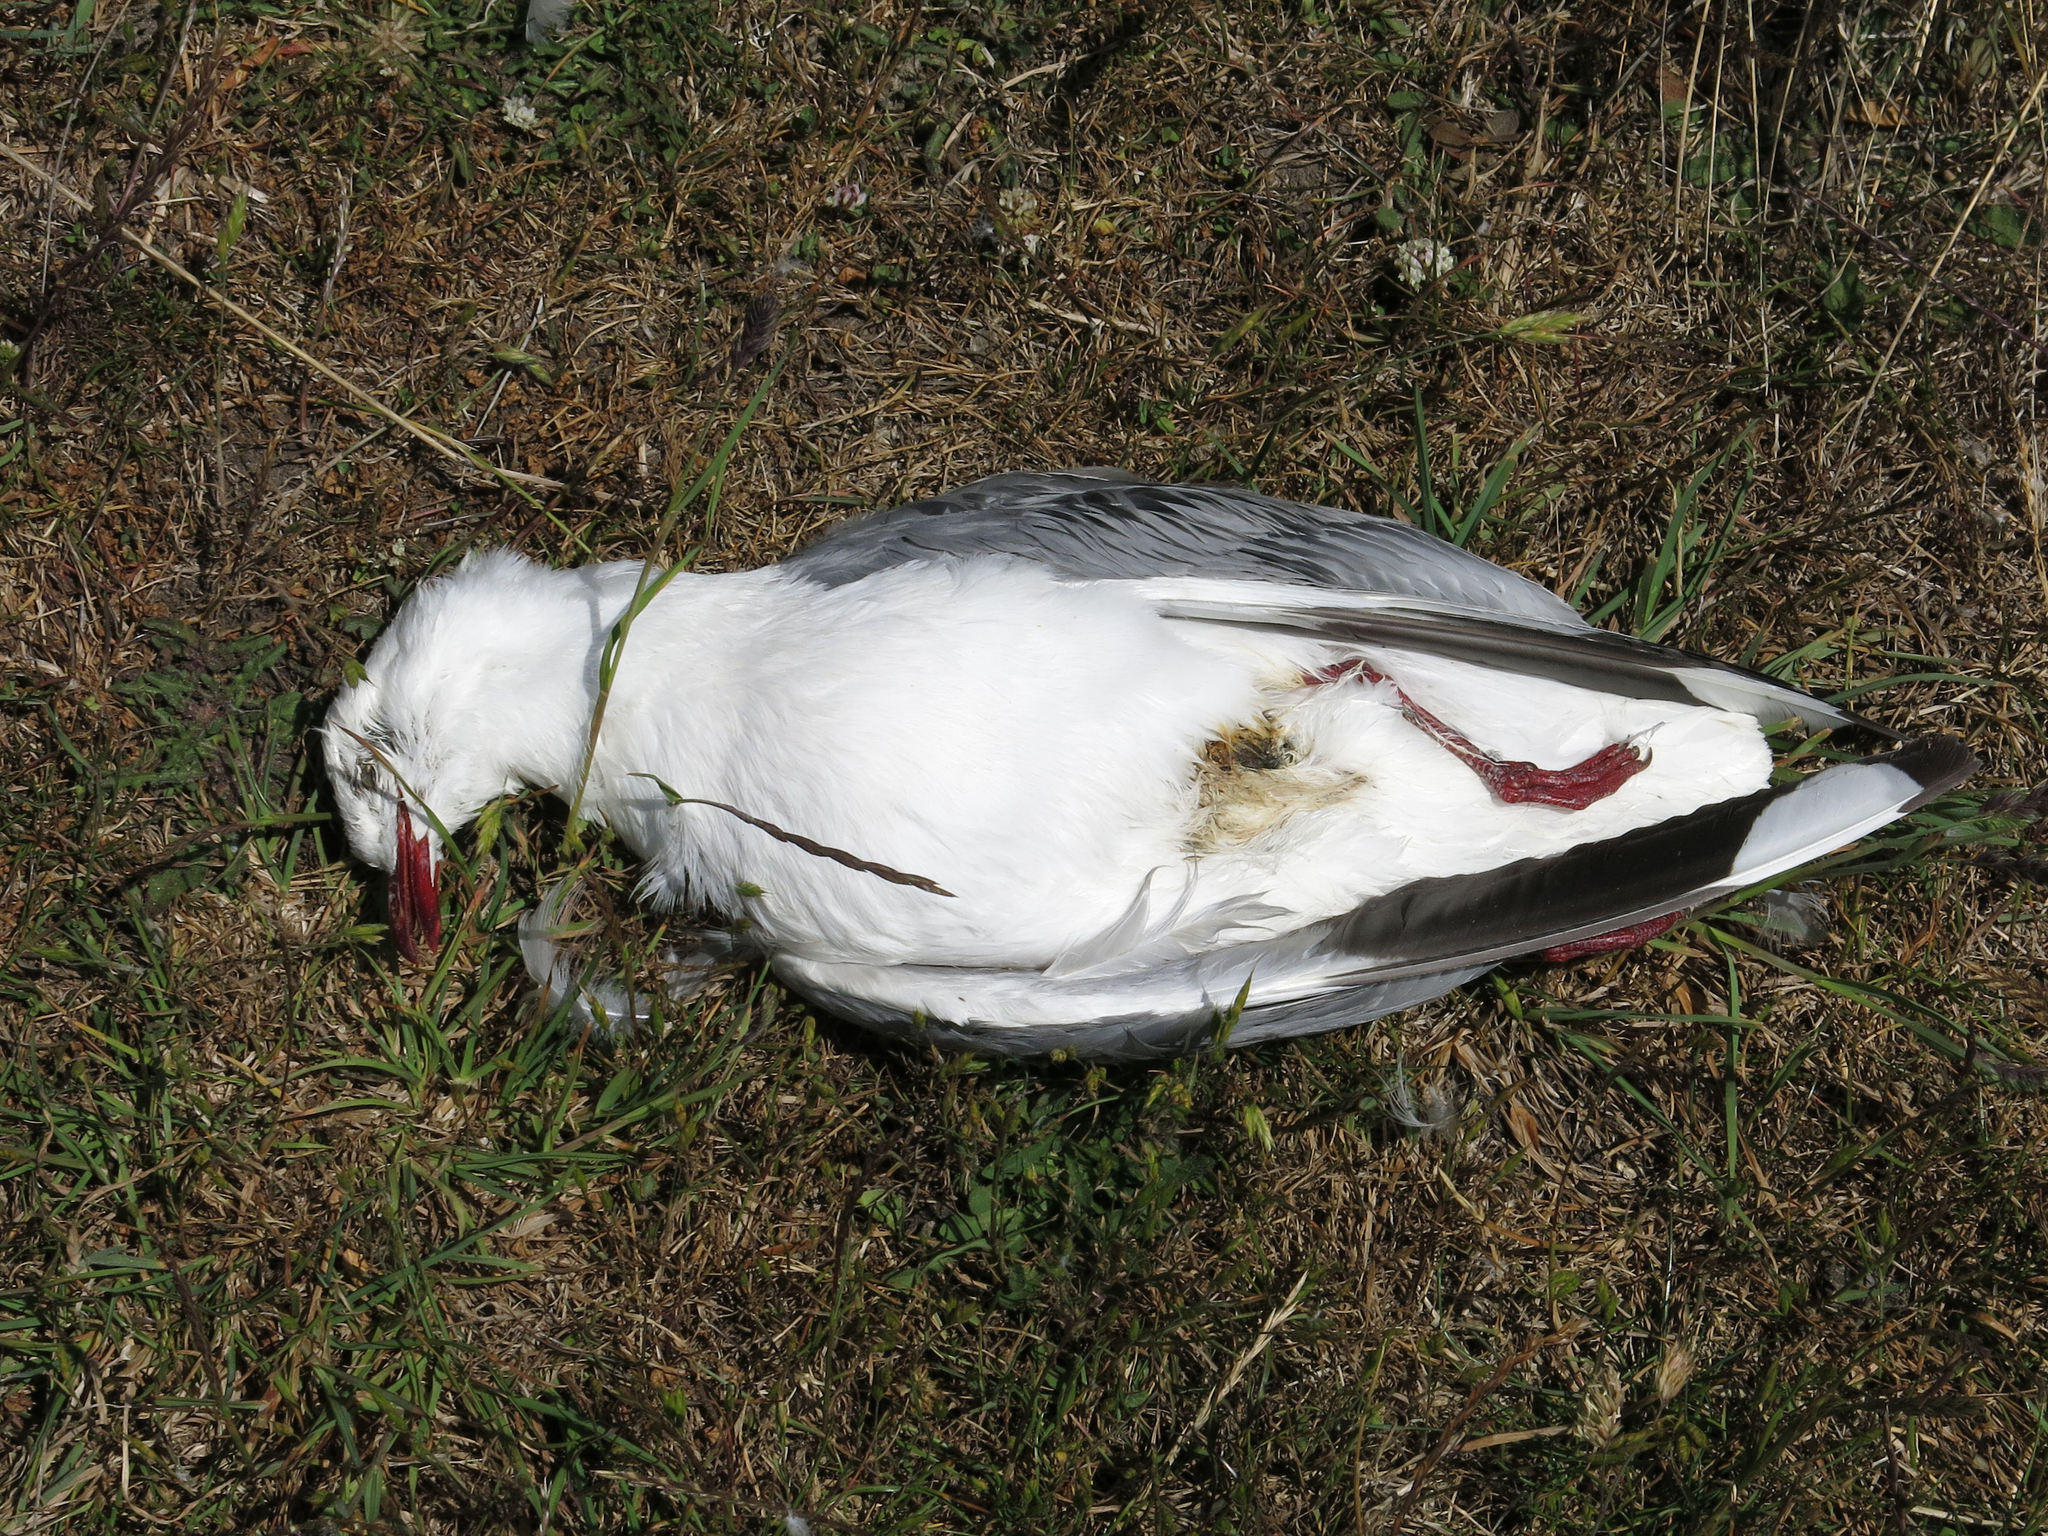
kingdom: Animalia
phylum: Chordata
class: Aves
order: Charadriiformes
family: Laridae
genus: Chroicocephalus
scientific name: Chroicocephalus novaehollandiae
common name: Silver gull
